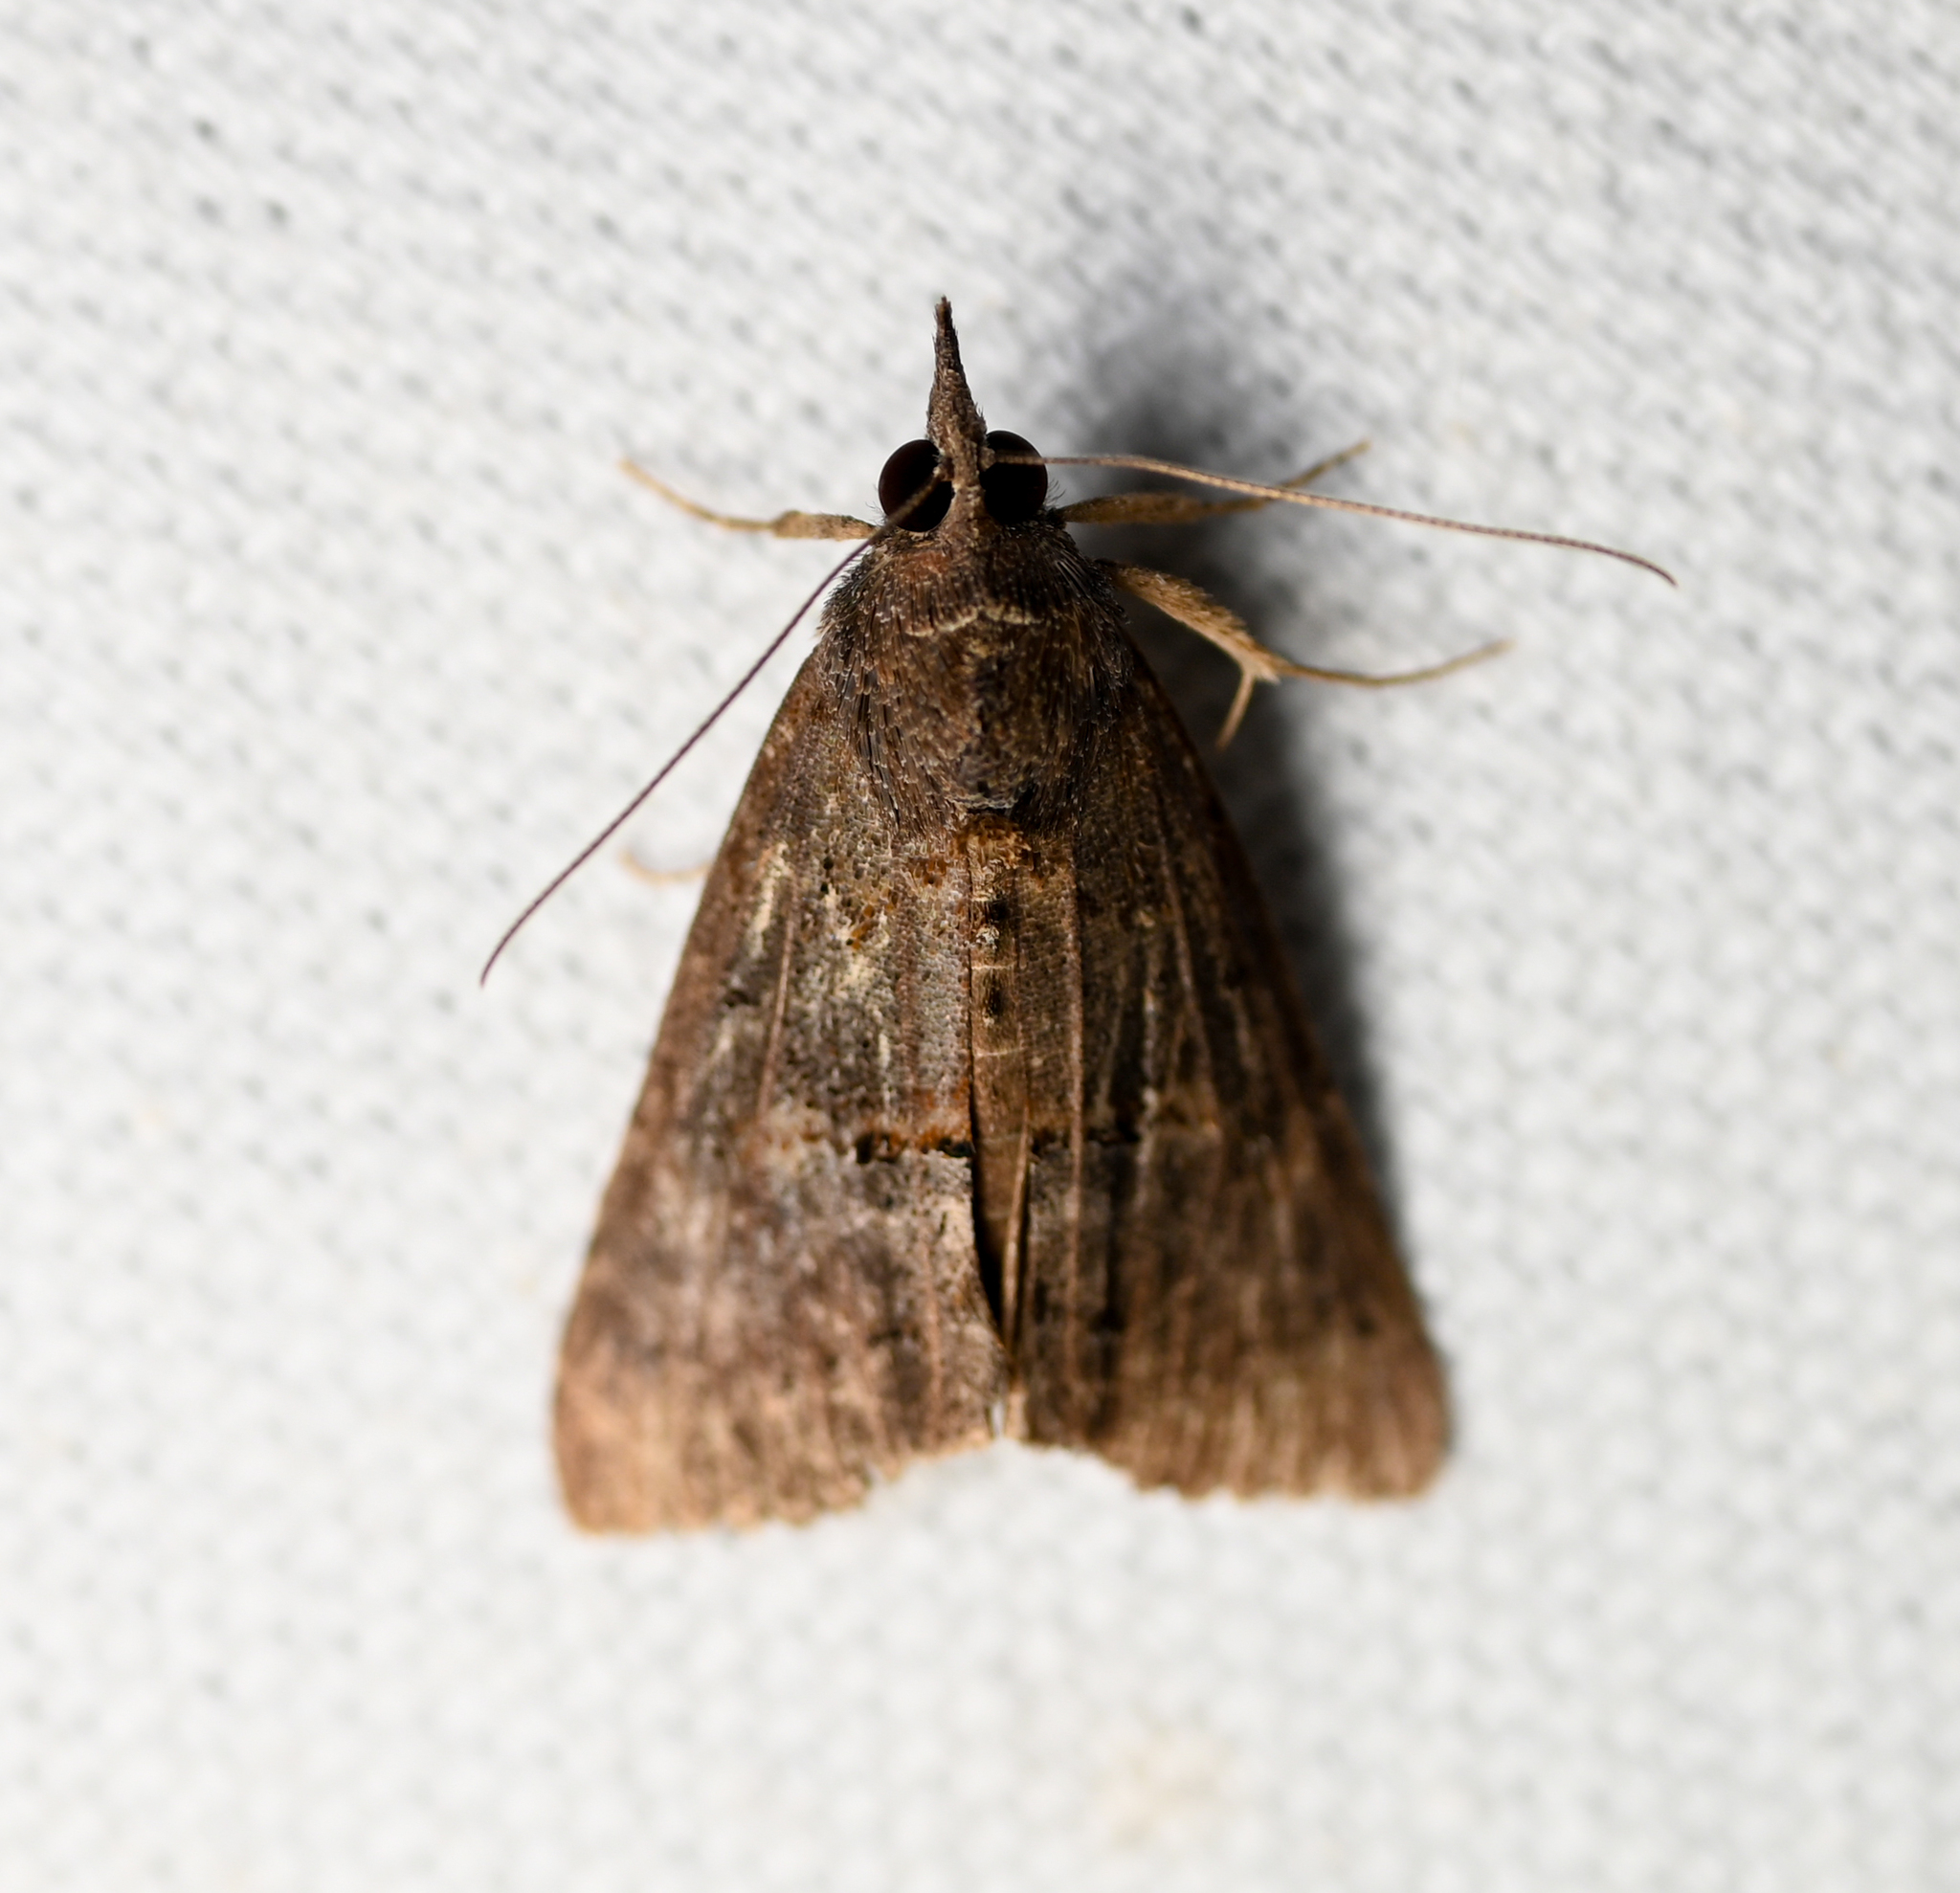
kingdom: Animalia
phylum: Arthropoda
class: Insecta
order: Lepidoptera
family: Erebidae
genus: Hypena
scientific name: Hypena scabra
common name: Green cloverworm
